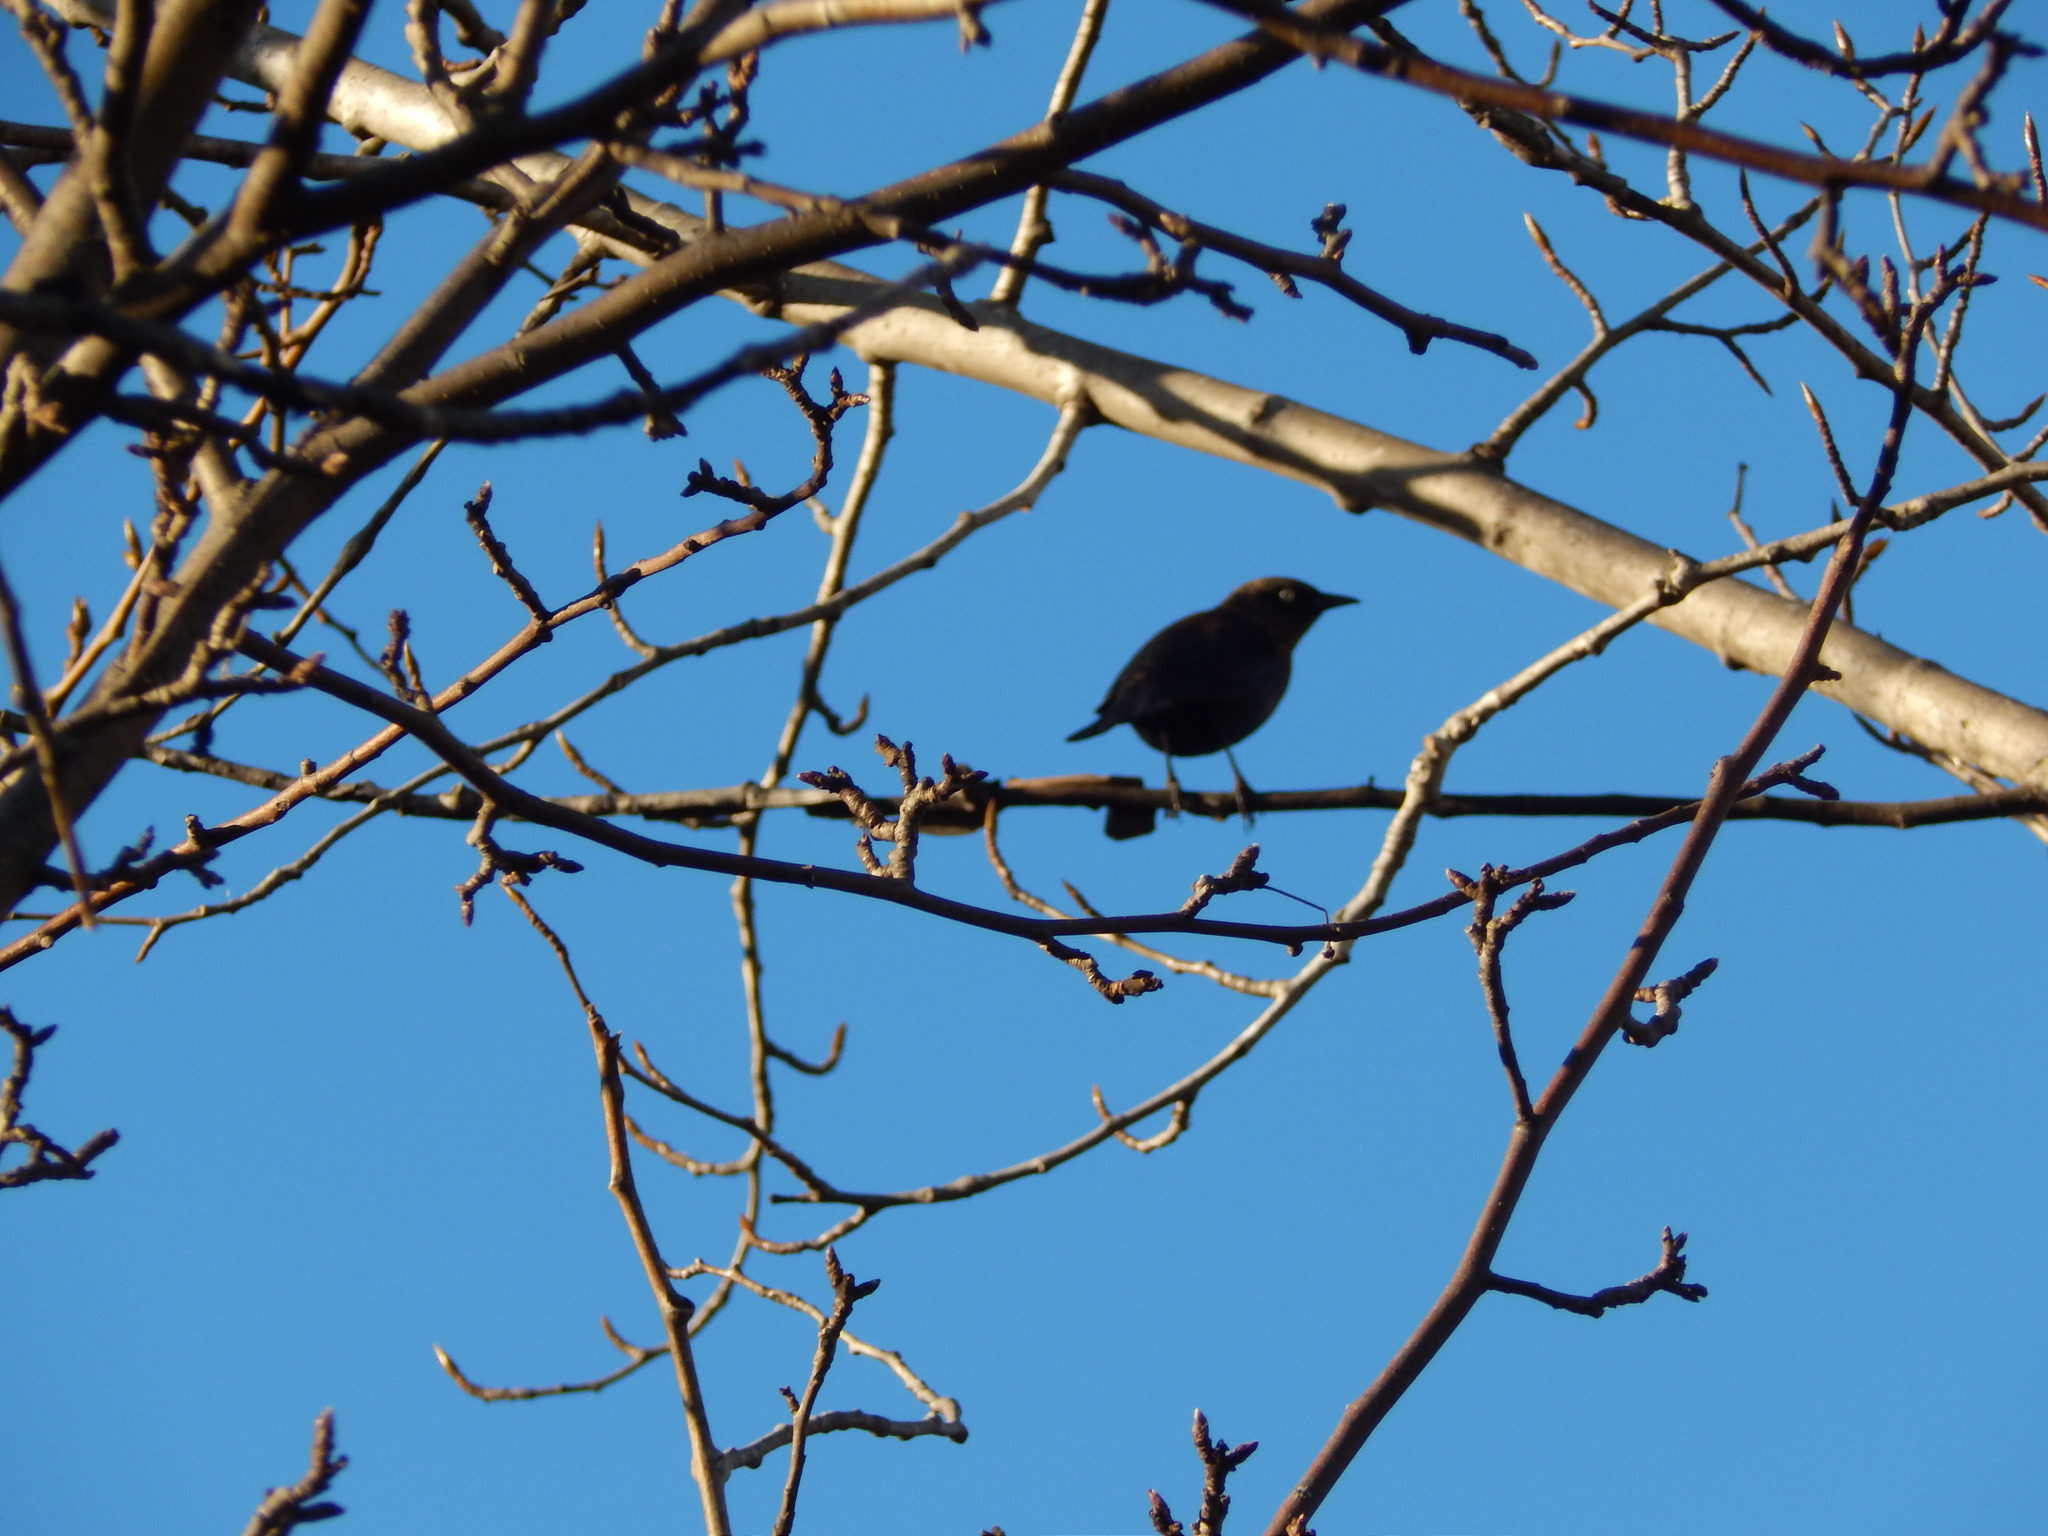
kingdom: Animalia
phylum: Chordata
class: Aves
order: Passeriformes
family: Icteridae
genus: Euphagus
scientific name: Euphagus carolinus
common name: Rusty blackbird
